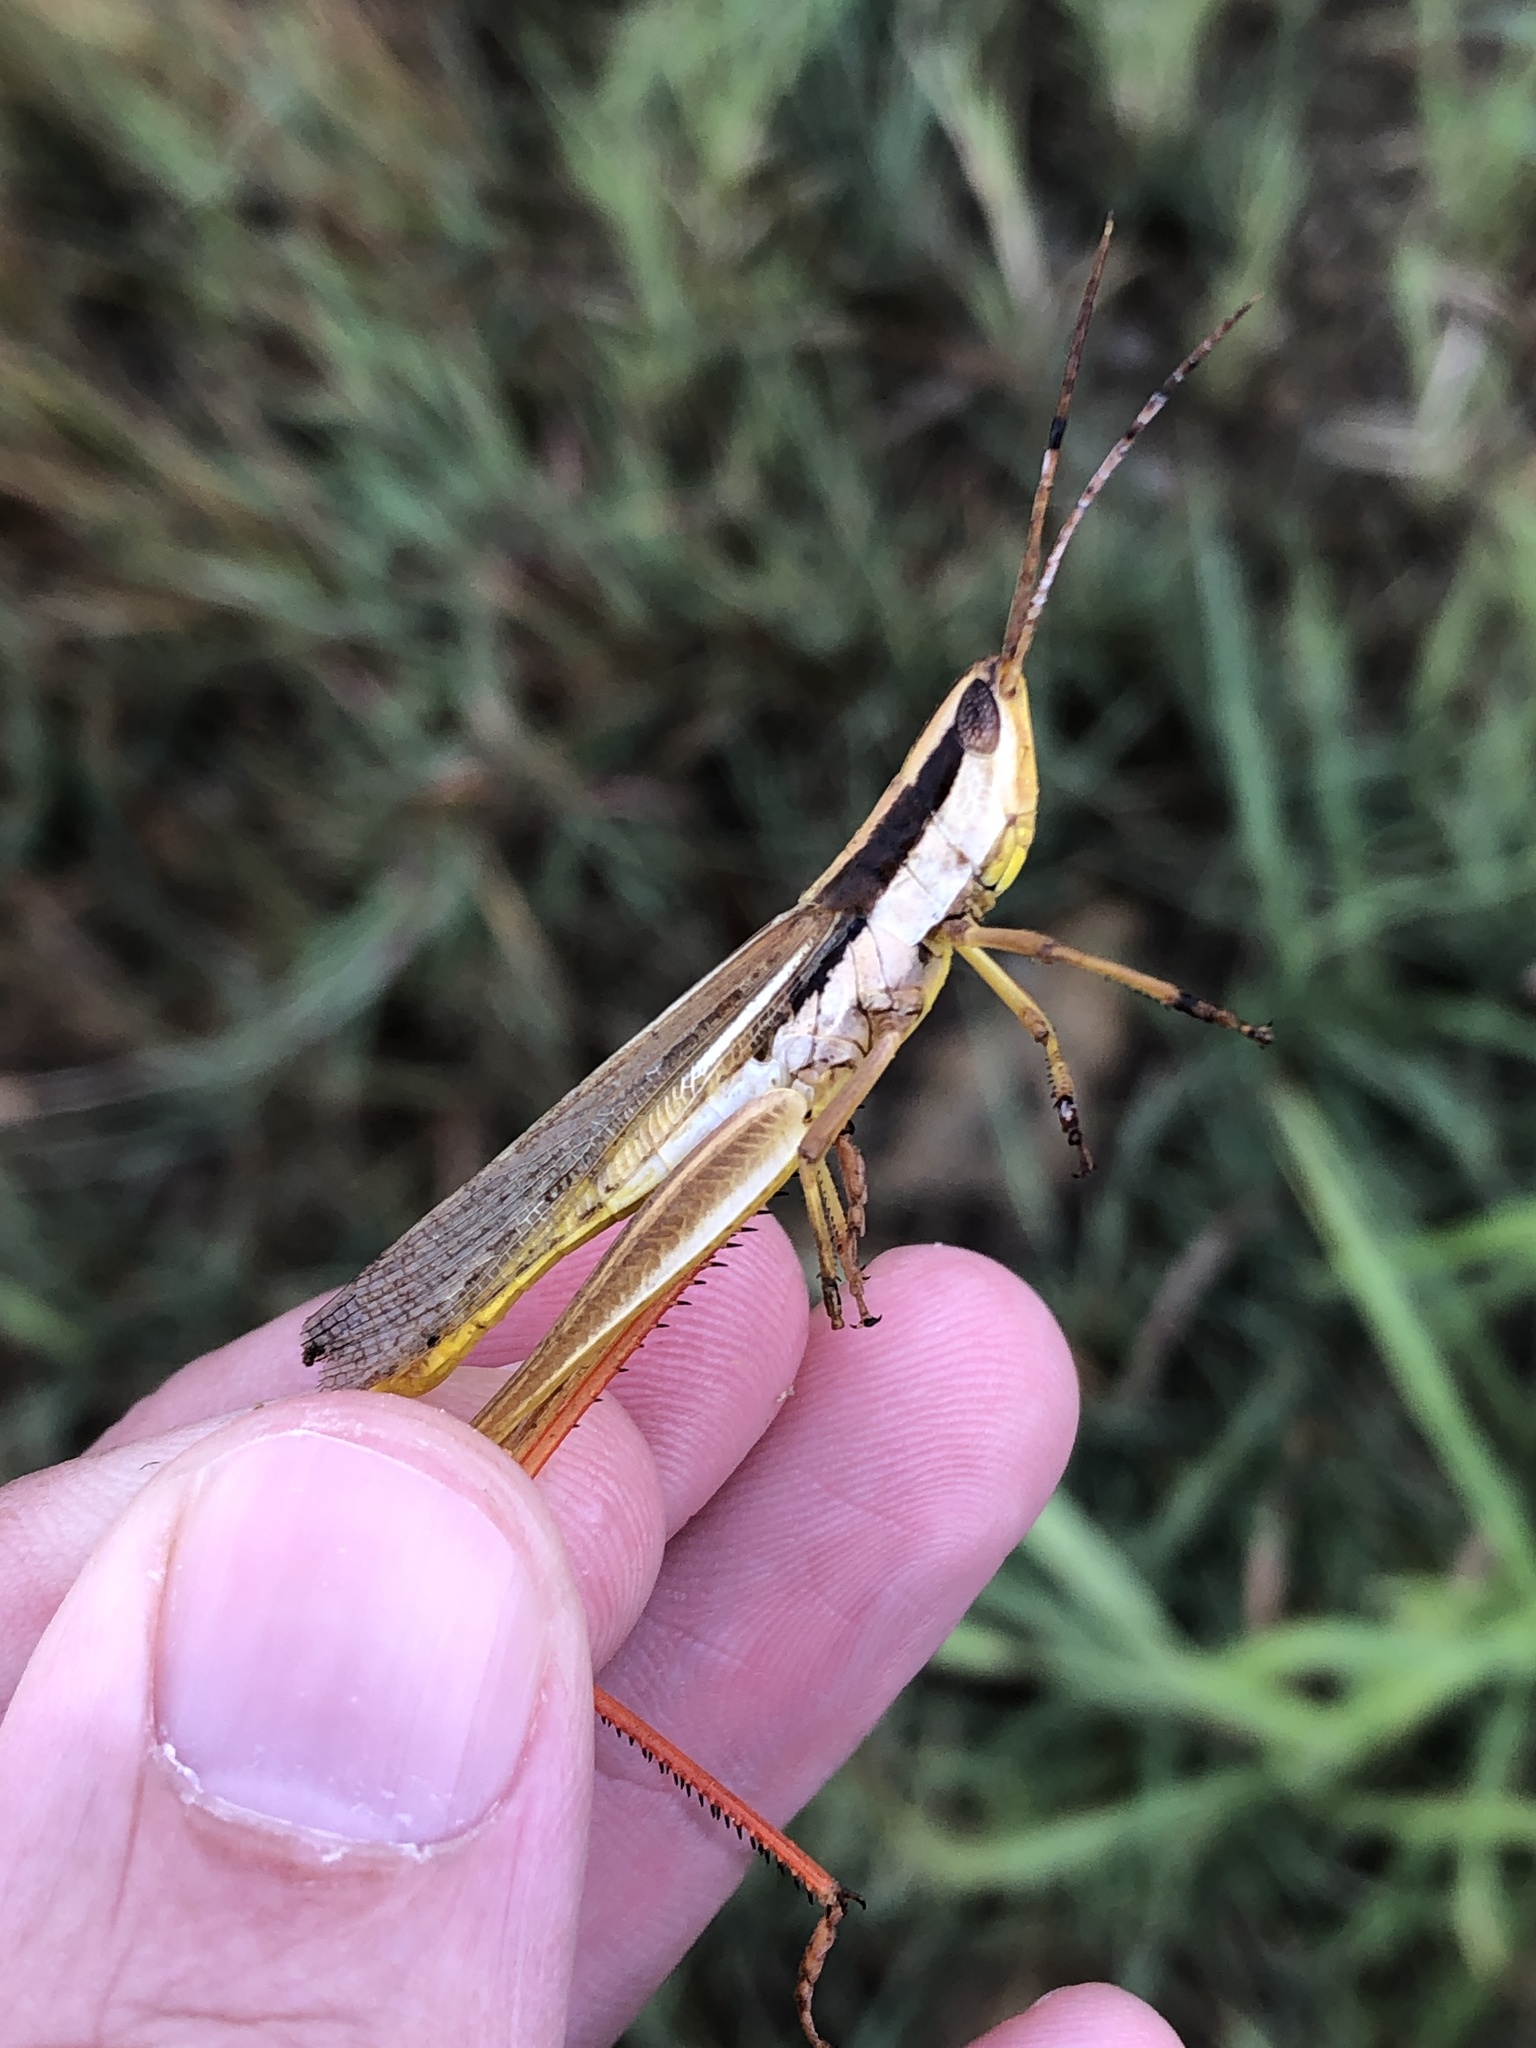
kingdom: Animalia
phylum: Arthropoda
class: Insecta
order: Orthoptera
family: Acrididae
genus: Mermiria
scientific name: Mermiria bivittata
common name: Two-striped mermiria grasshopper
